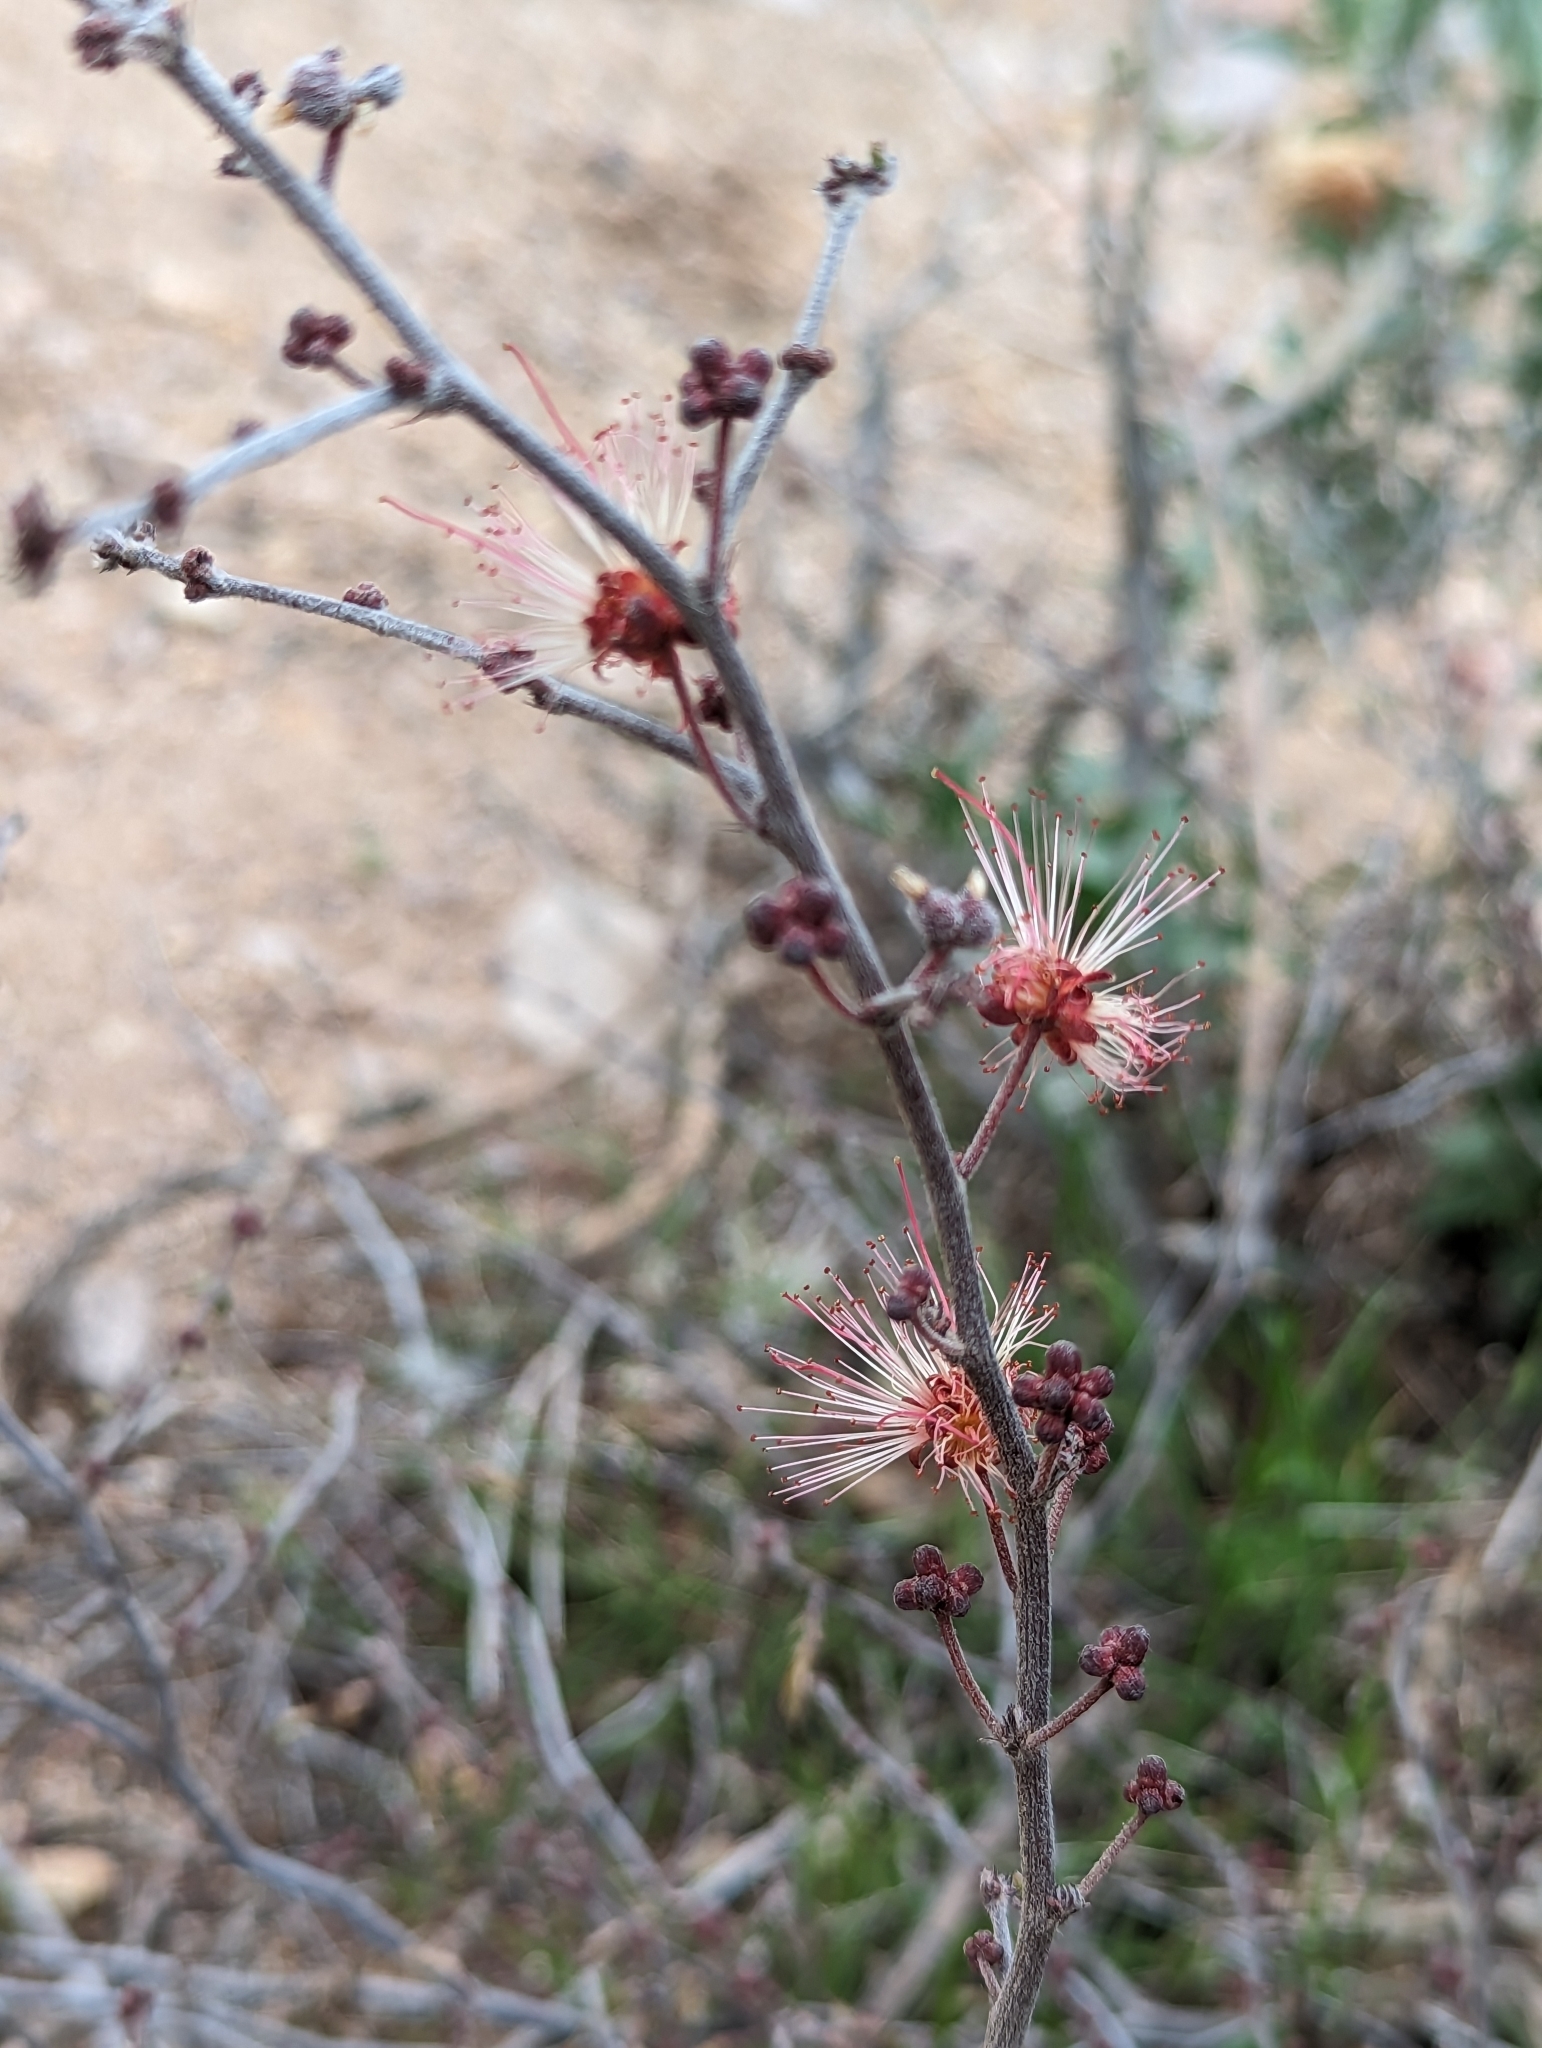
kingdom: Plantae
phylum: Tracheophyta
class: Magnoliopsida
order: Fabales
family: Fabaceae
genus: Calliandra
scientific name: Calliandra eriophylla
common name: Fairy-duster
